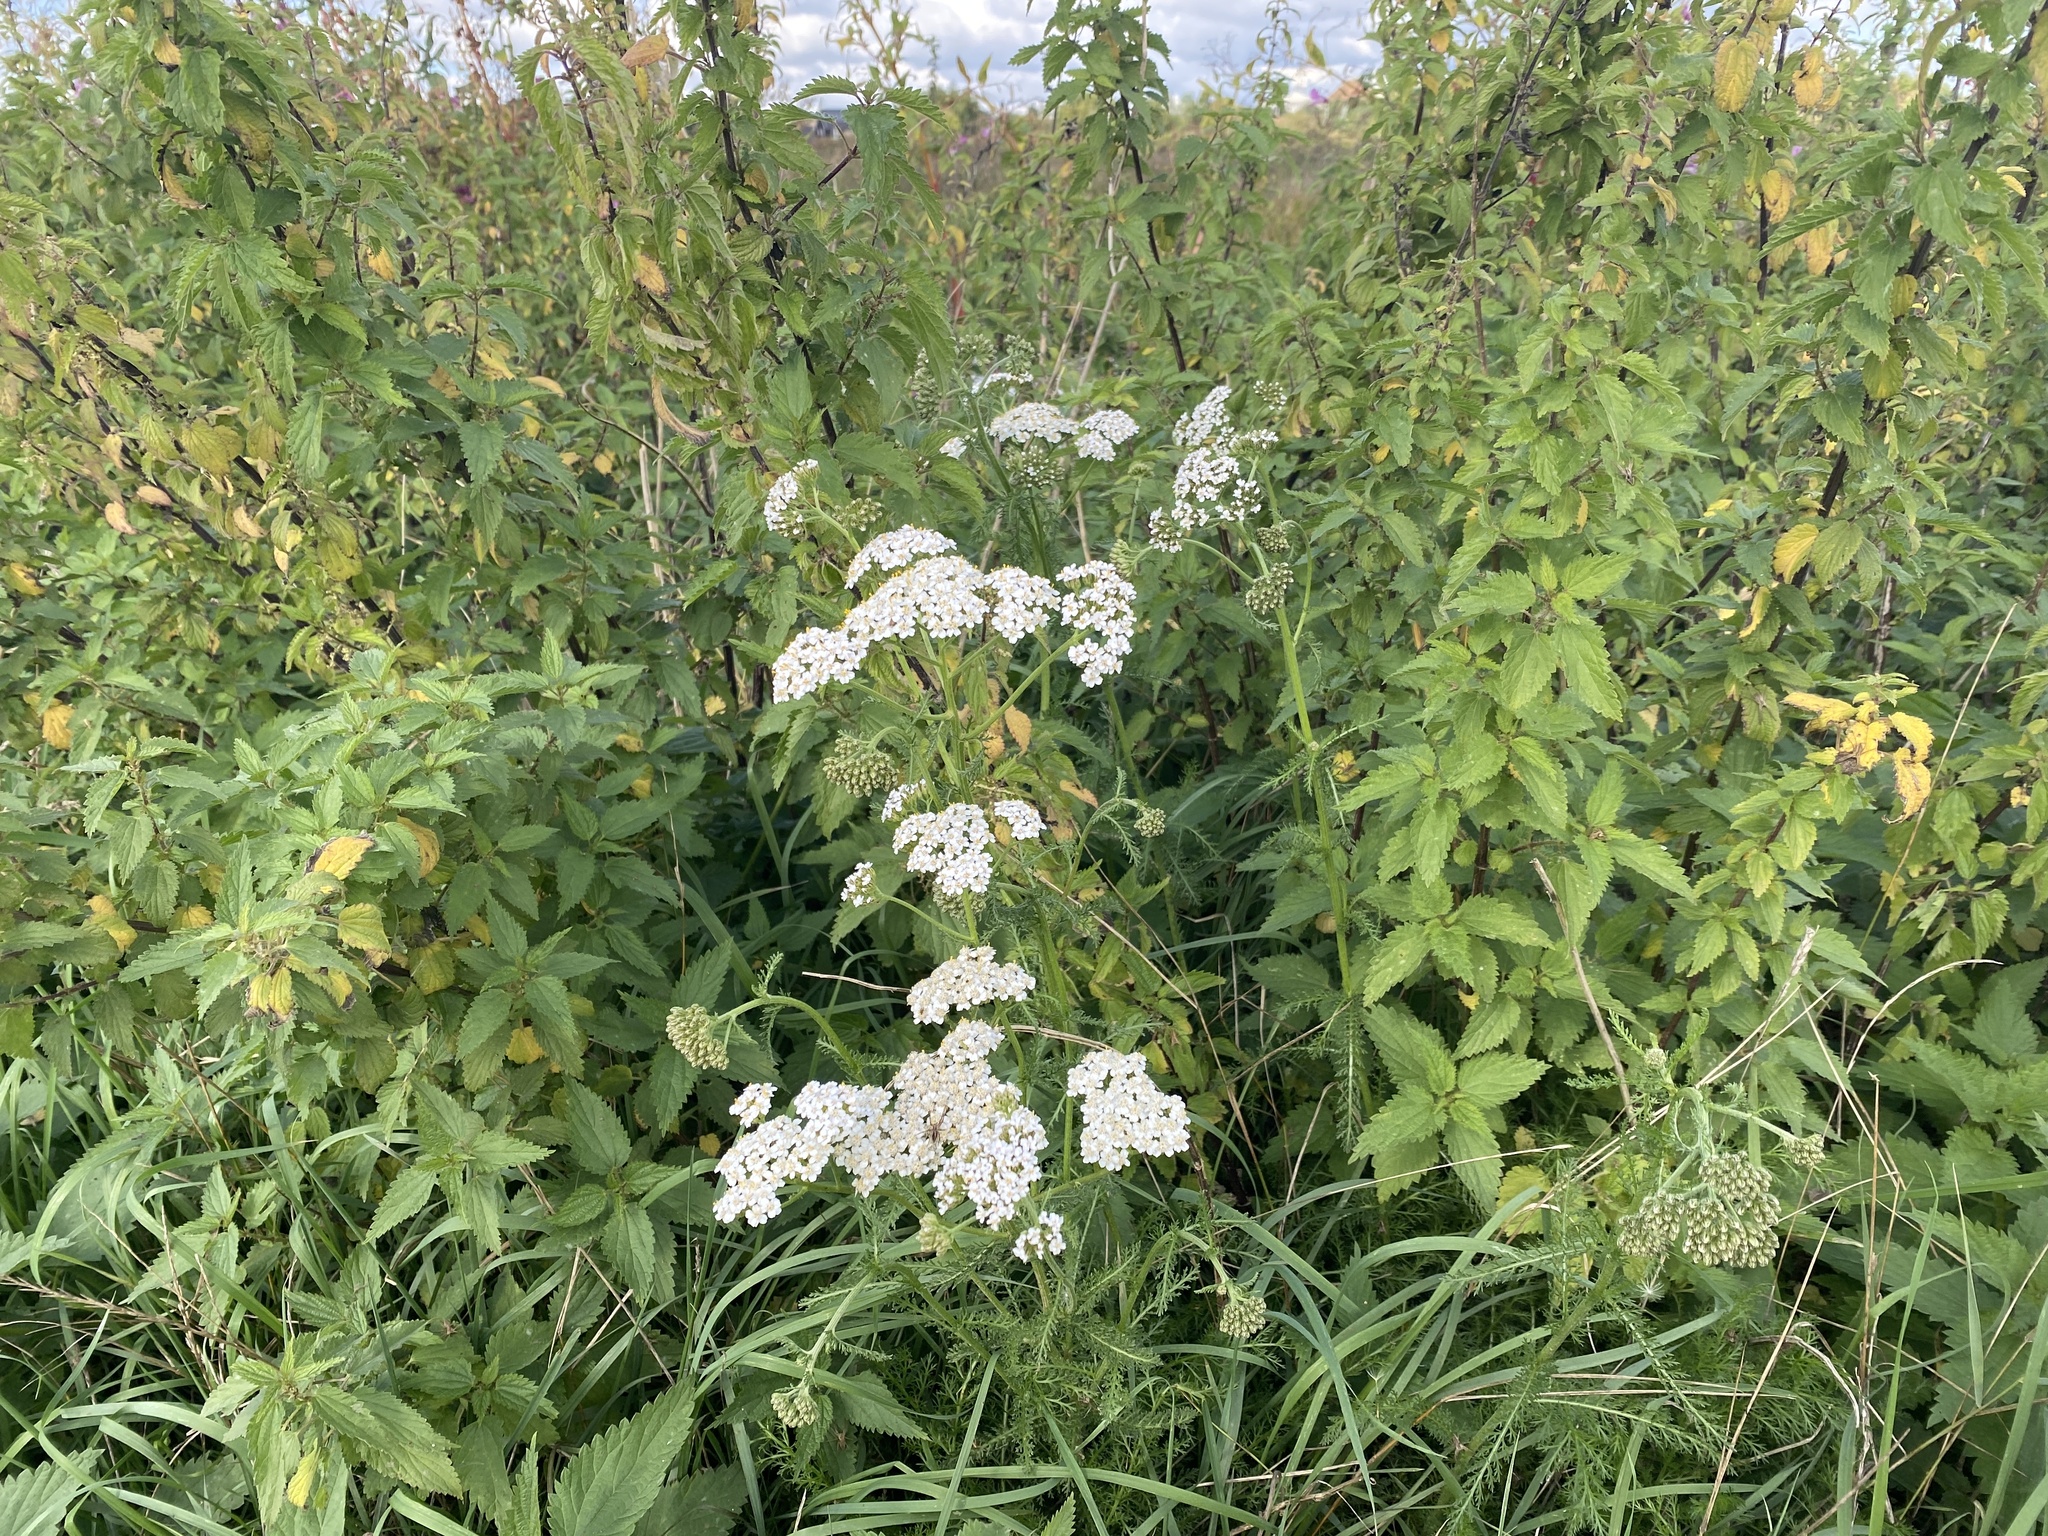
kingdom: Plantae
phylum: Tracheophyta
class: Magnoliopsida
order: Asterales
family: Asteraceae
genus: Achillea
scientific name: Achillea millefolium
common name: Yarrow
